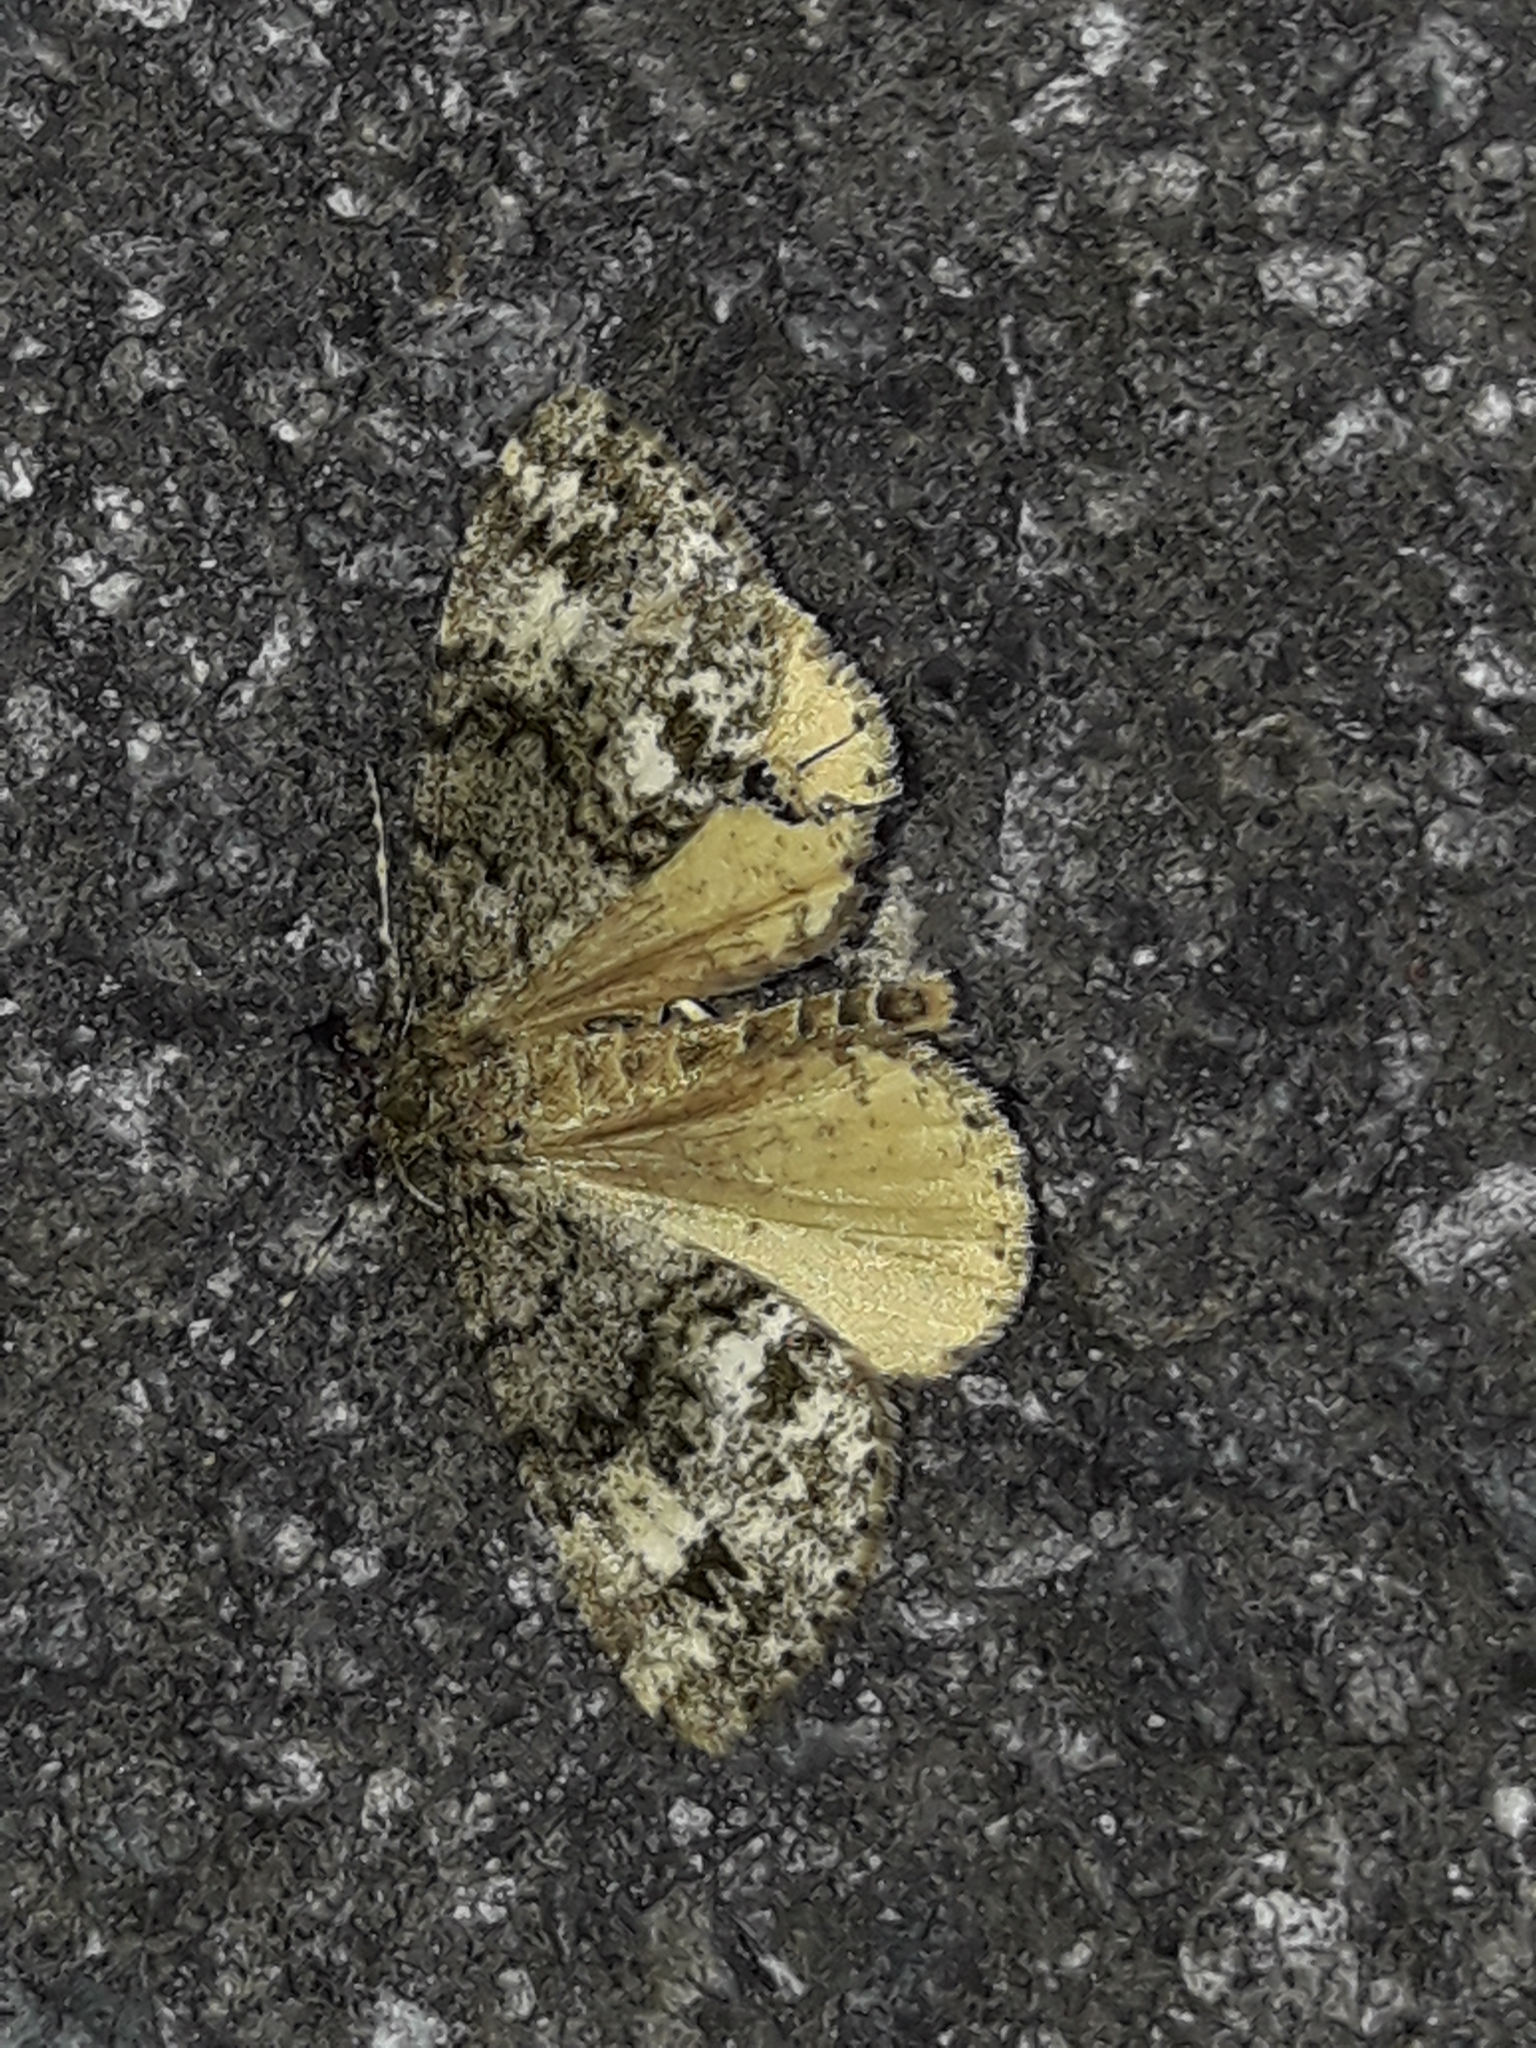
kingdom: Animalia
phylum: Arthropoda
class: Insecta
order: Lepidoptera
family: Geometridae
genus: Pseudocoremia
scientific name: Pseudocoremia indistincta
